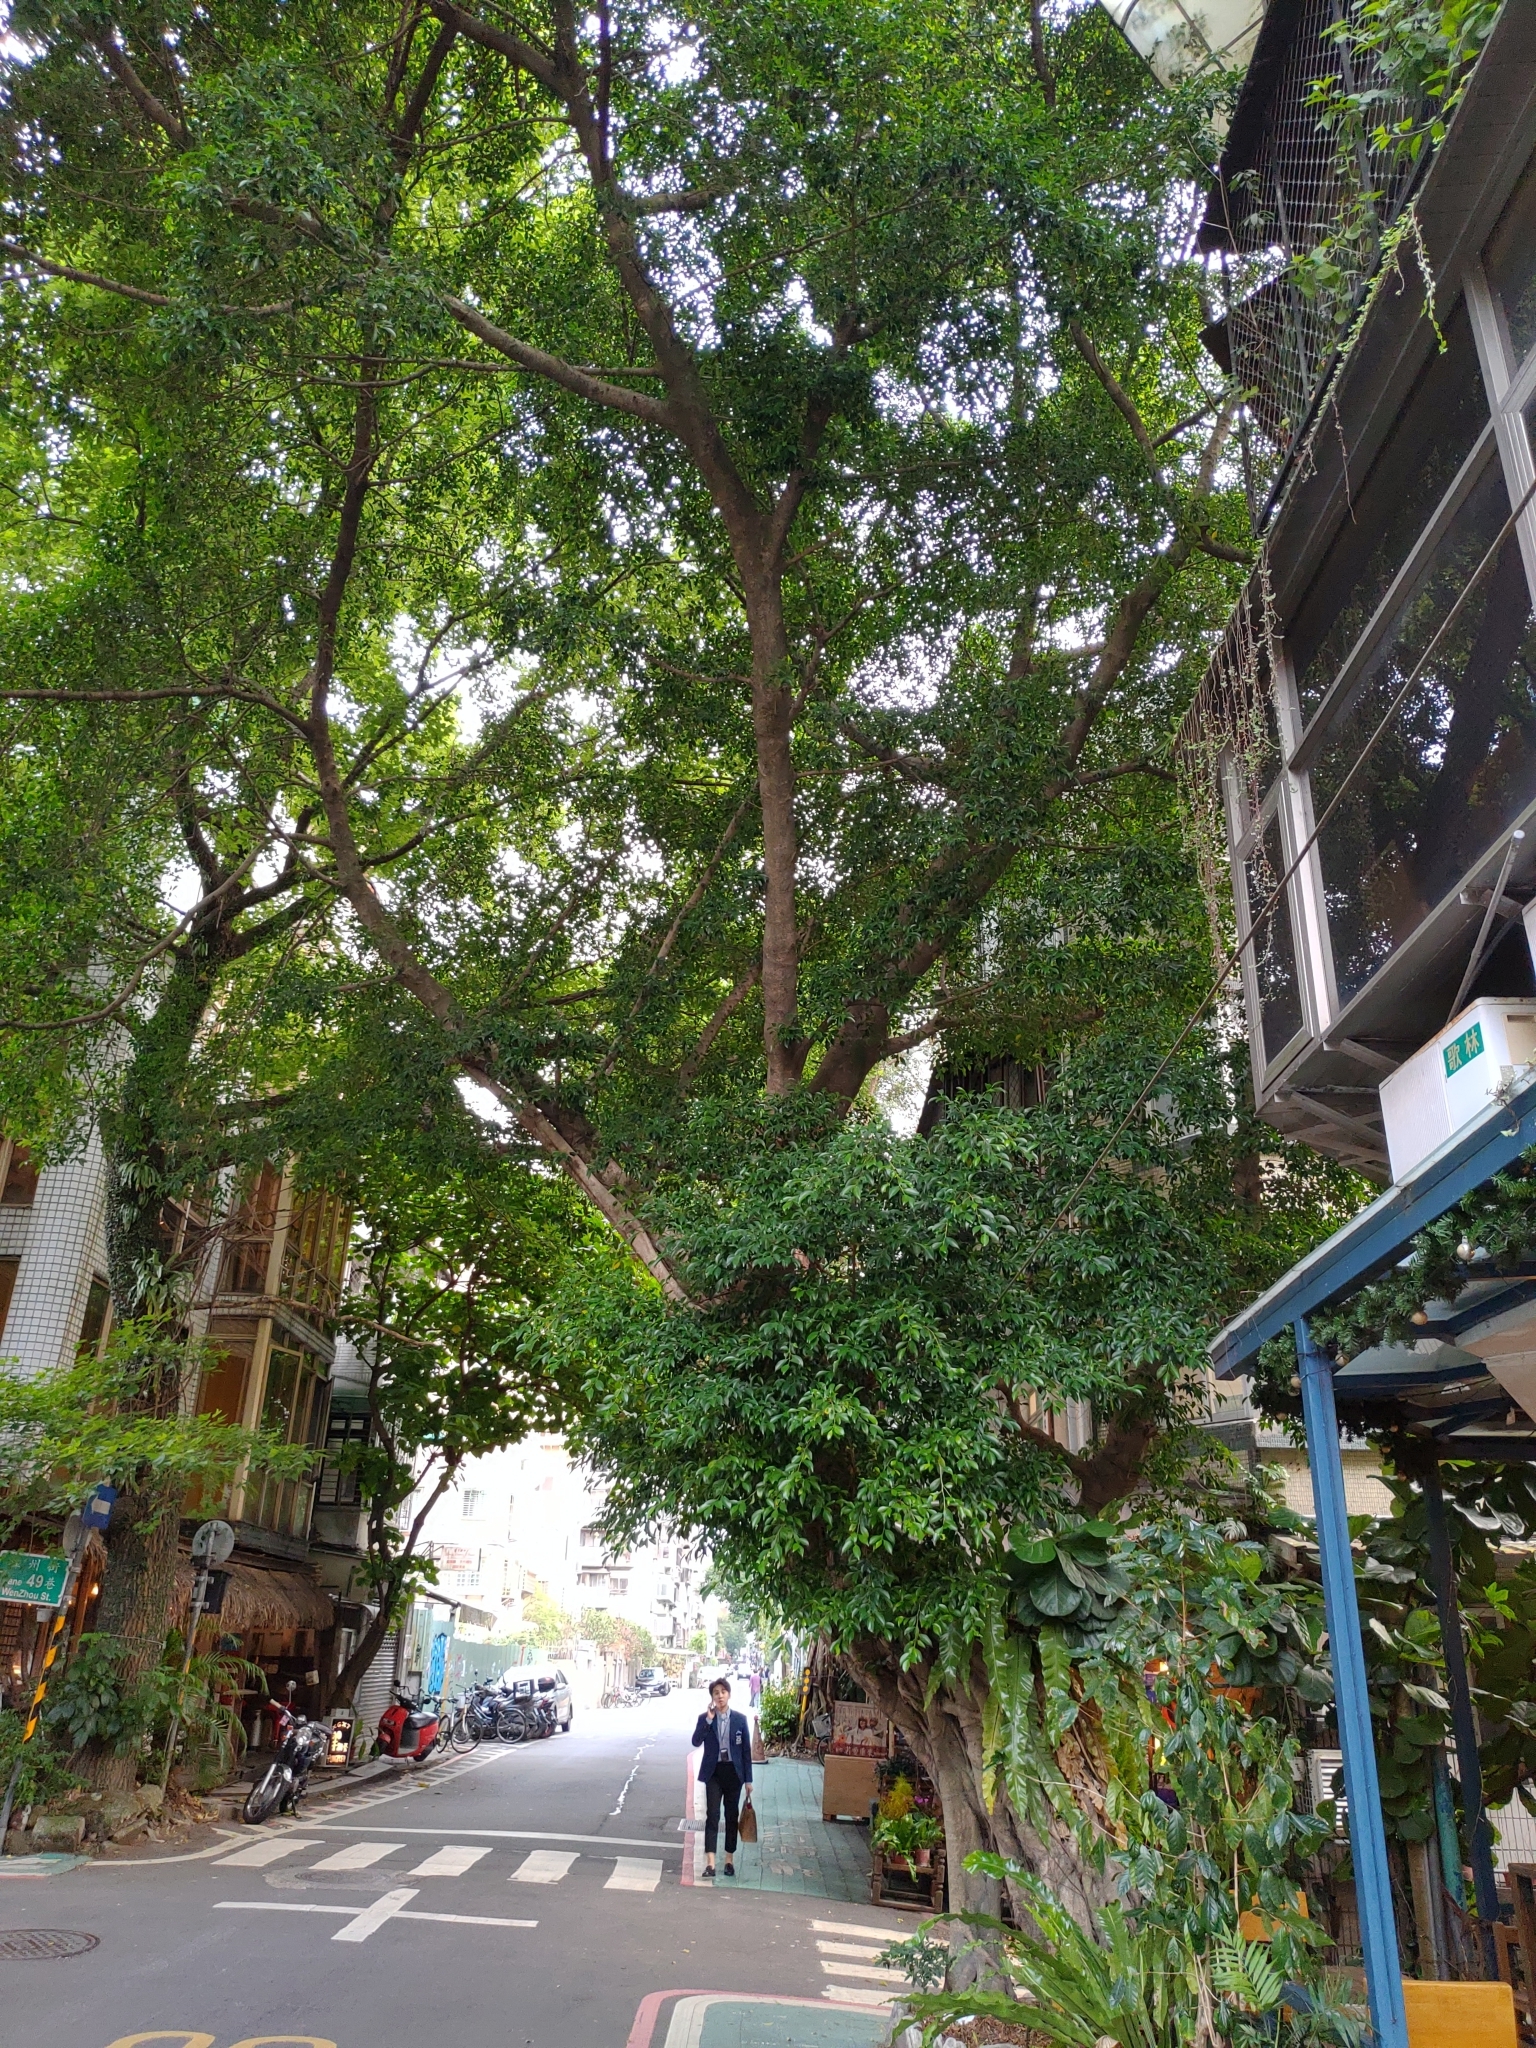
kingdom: Plantae
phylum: Tracheophyta
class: Magnoliopsida
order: Rosales
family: Moraceae
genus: Ficus
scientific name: Ficus microcarpa
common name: Chinese banyan
